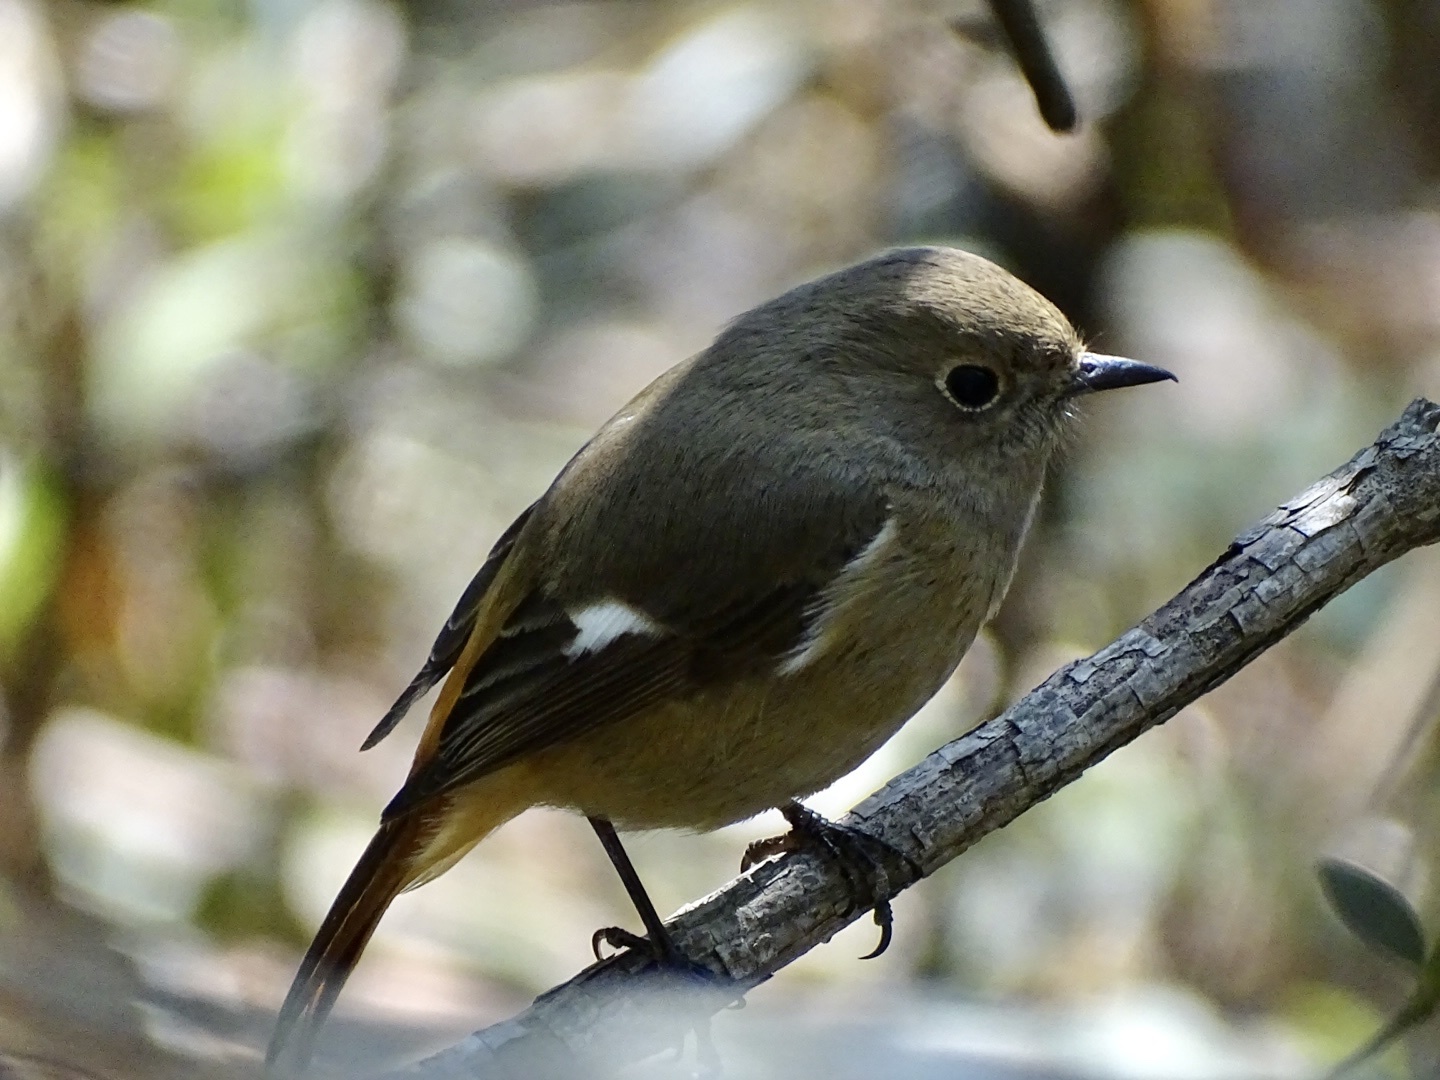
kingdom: Animalia
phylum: Chordata
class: Aves
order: Passeriformes
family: Muscicapidae
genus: Phoenicurus
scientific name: Phoenicurus auroreus
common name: Daurian redstart
